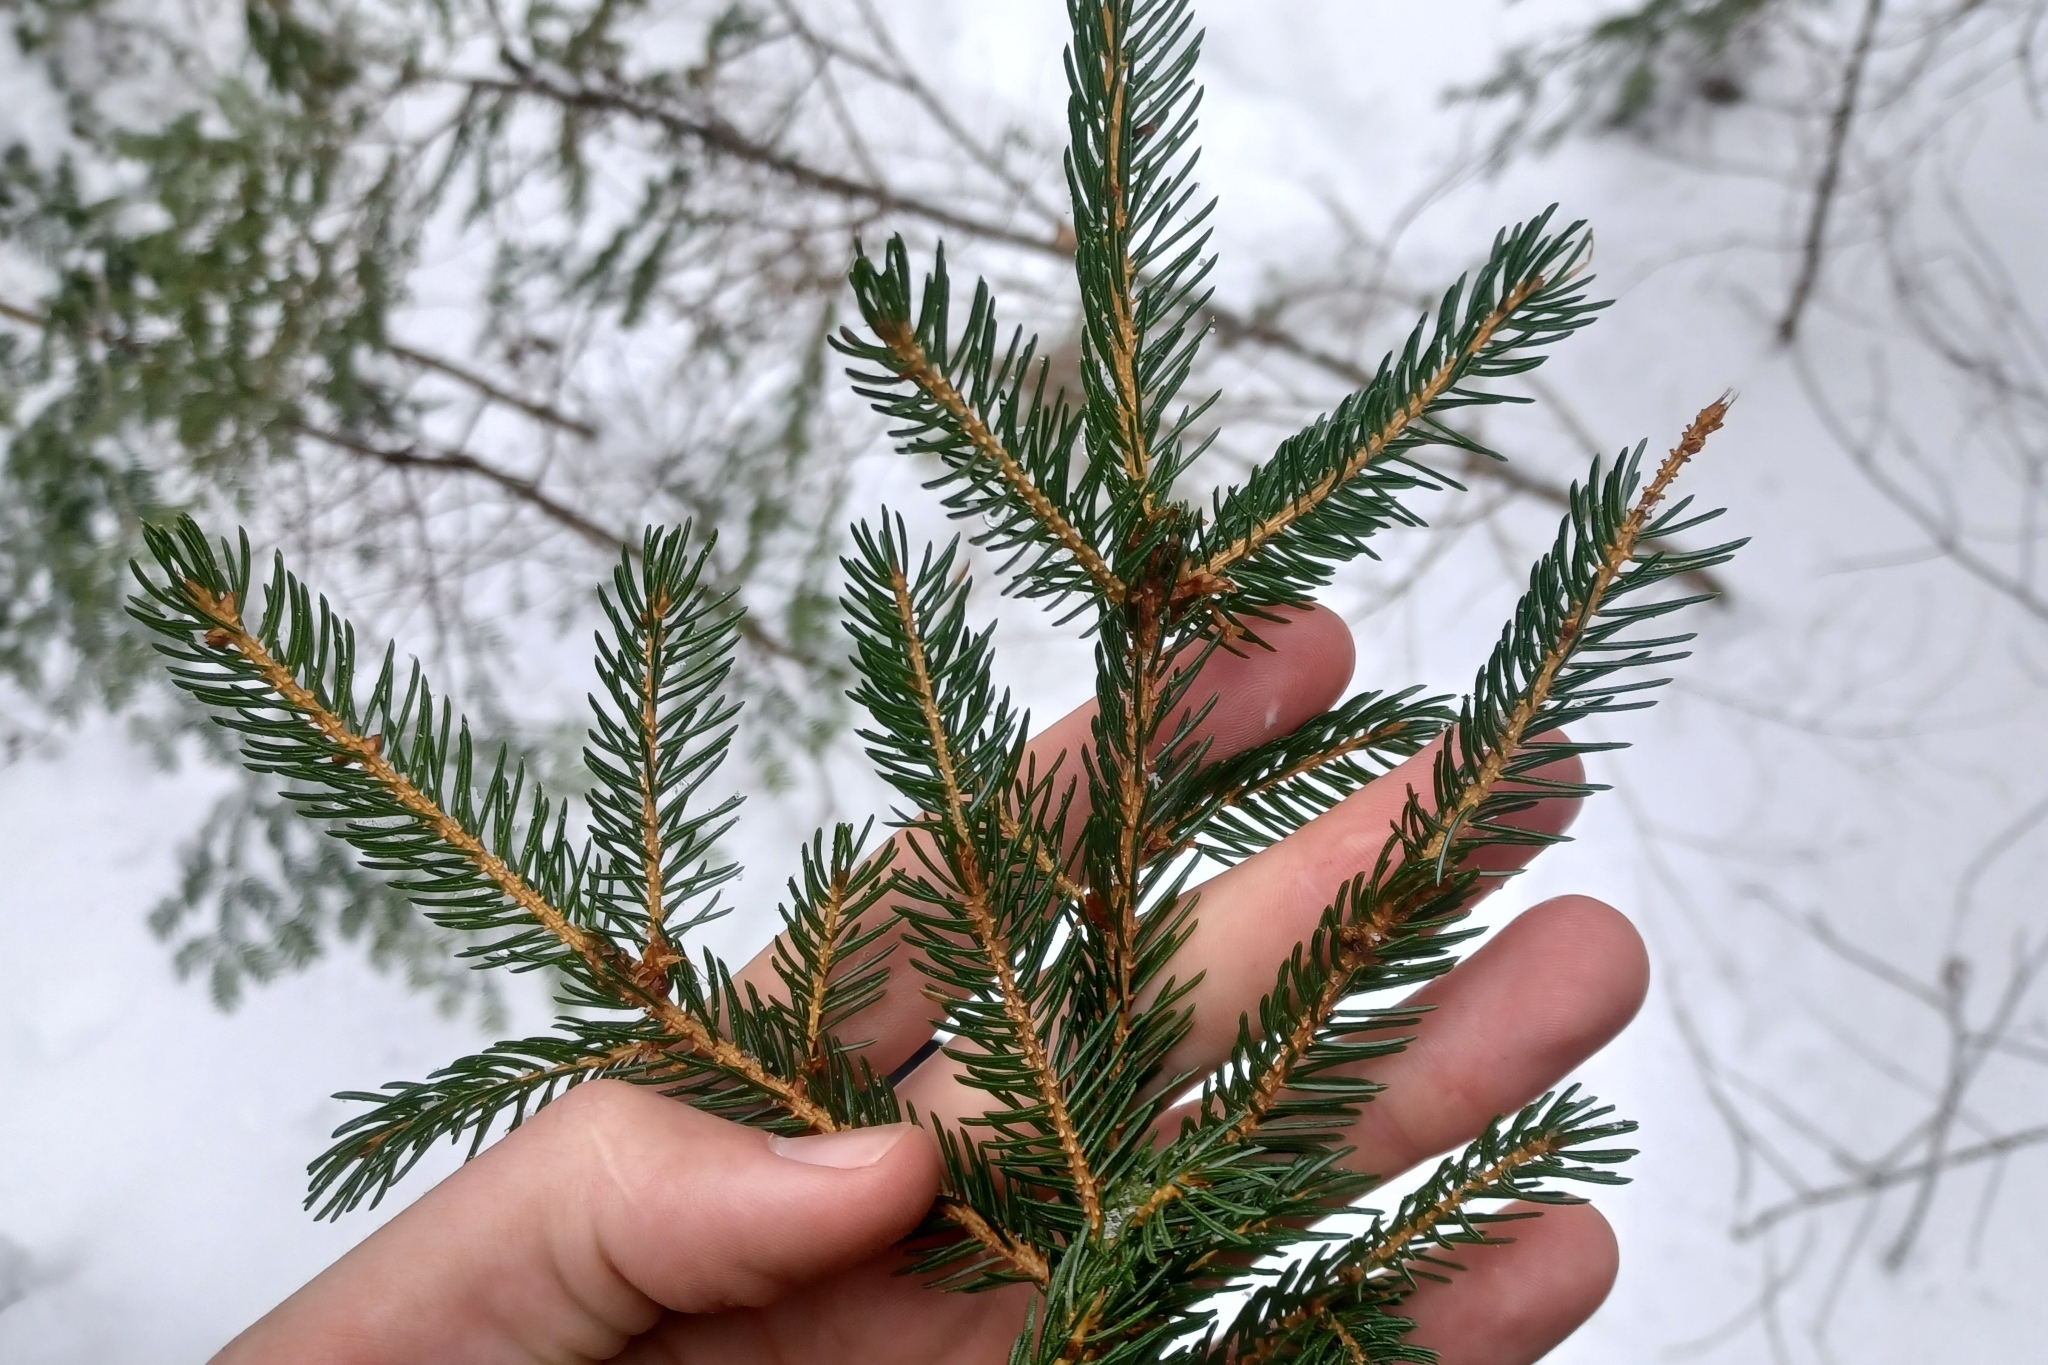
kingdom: Plantae
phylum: Tracheophyta
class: Pinopsida
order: Pinales
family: Pinaceae
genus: Picea
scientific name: Picea rubens
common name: Red spruce
